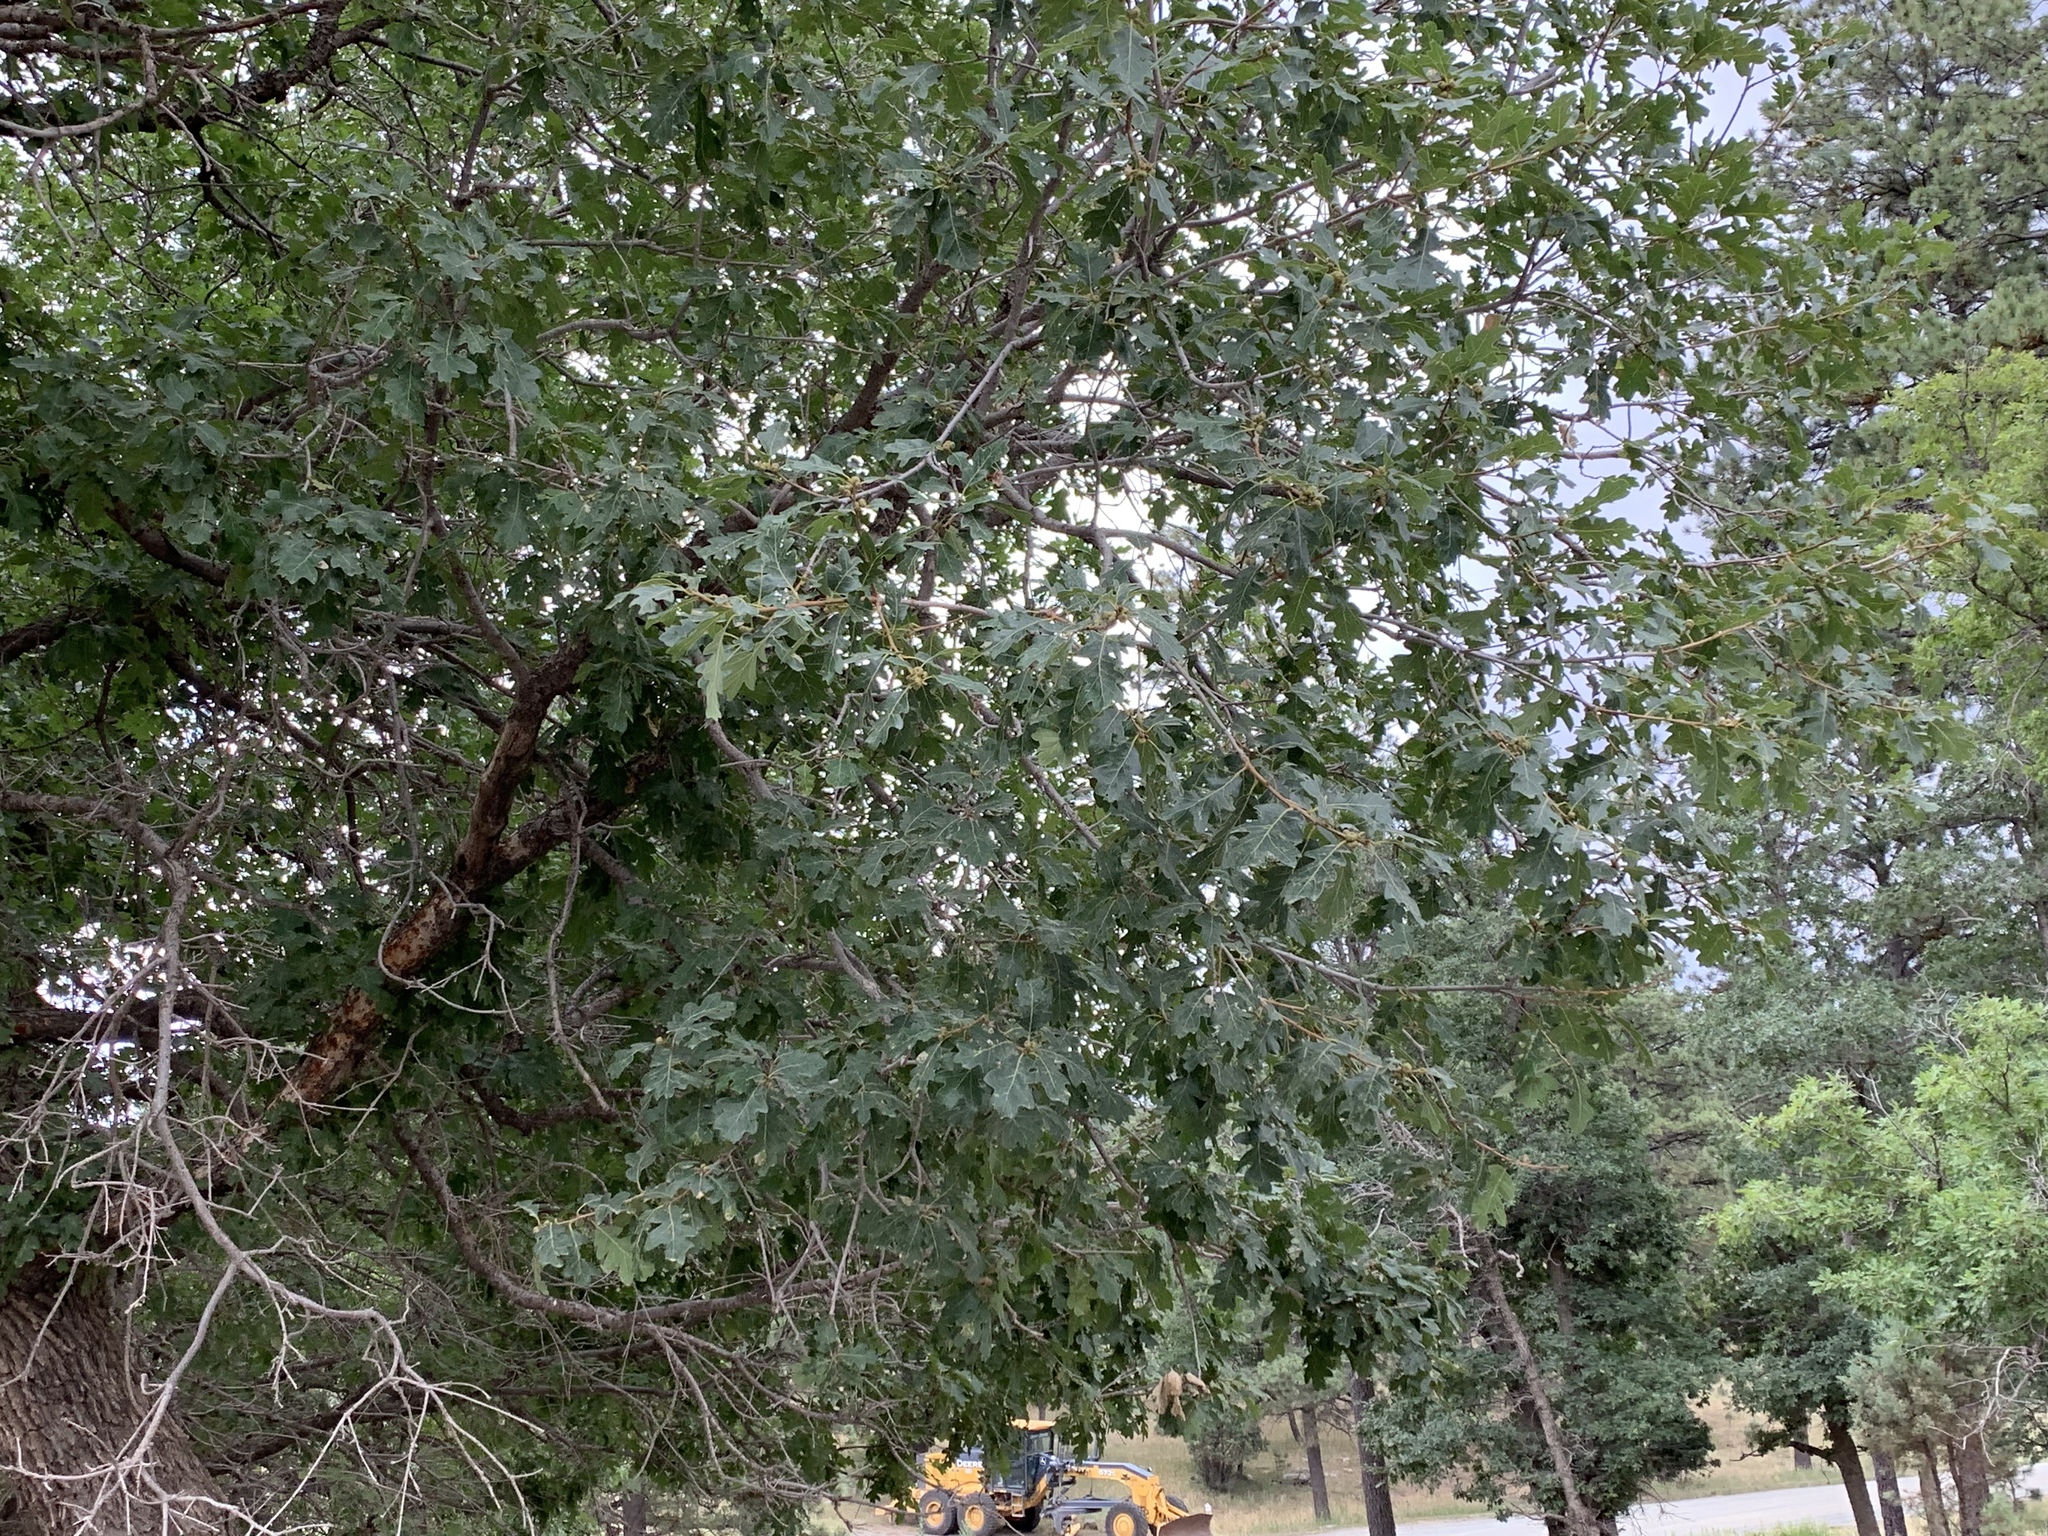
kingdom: Plantae
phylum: Tracheophyta
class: Magnoliopsida
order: Fagales
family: Fagaceae
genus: Quercus
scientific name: Quercus gambelii
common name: Gambel oak
